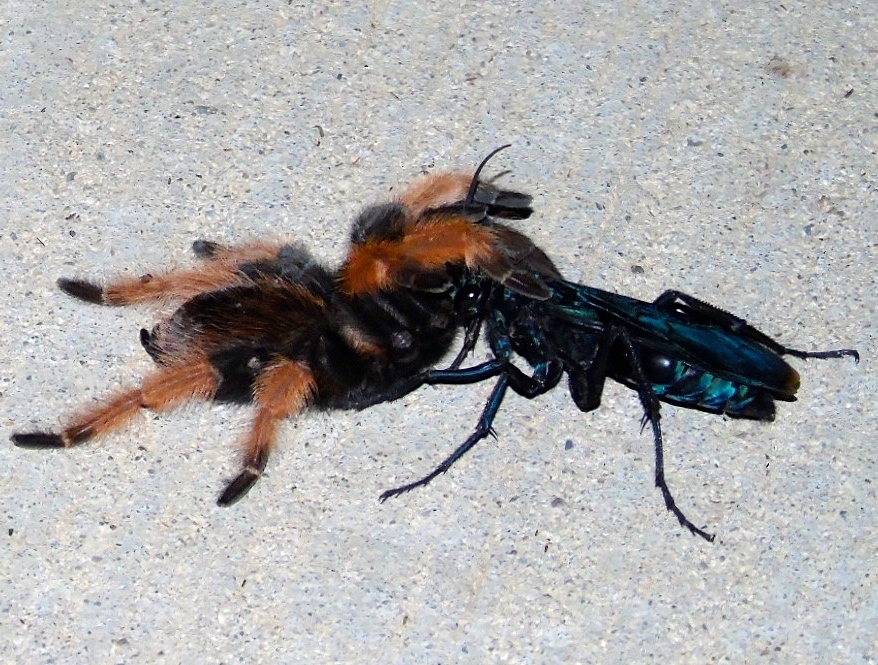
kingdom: Animalia
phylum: Arthropoda
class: Insecta
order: Hymenoptera
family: Pompilidae
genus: Pepsis
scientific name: Pepsis mexicana
